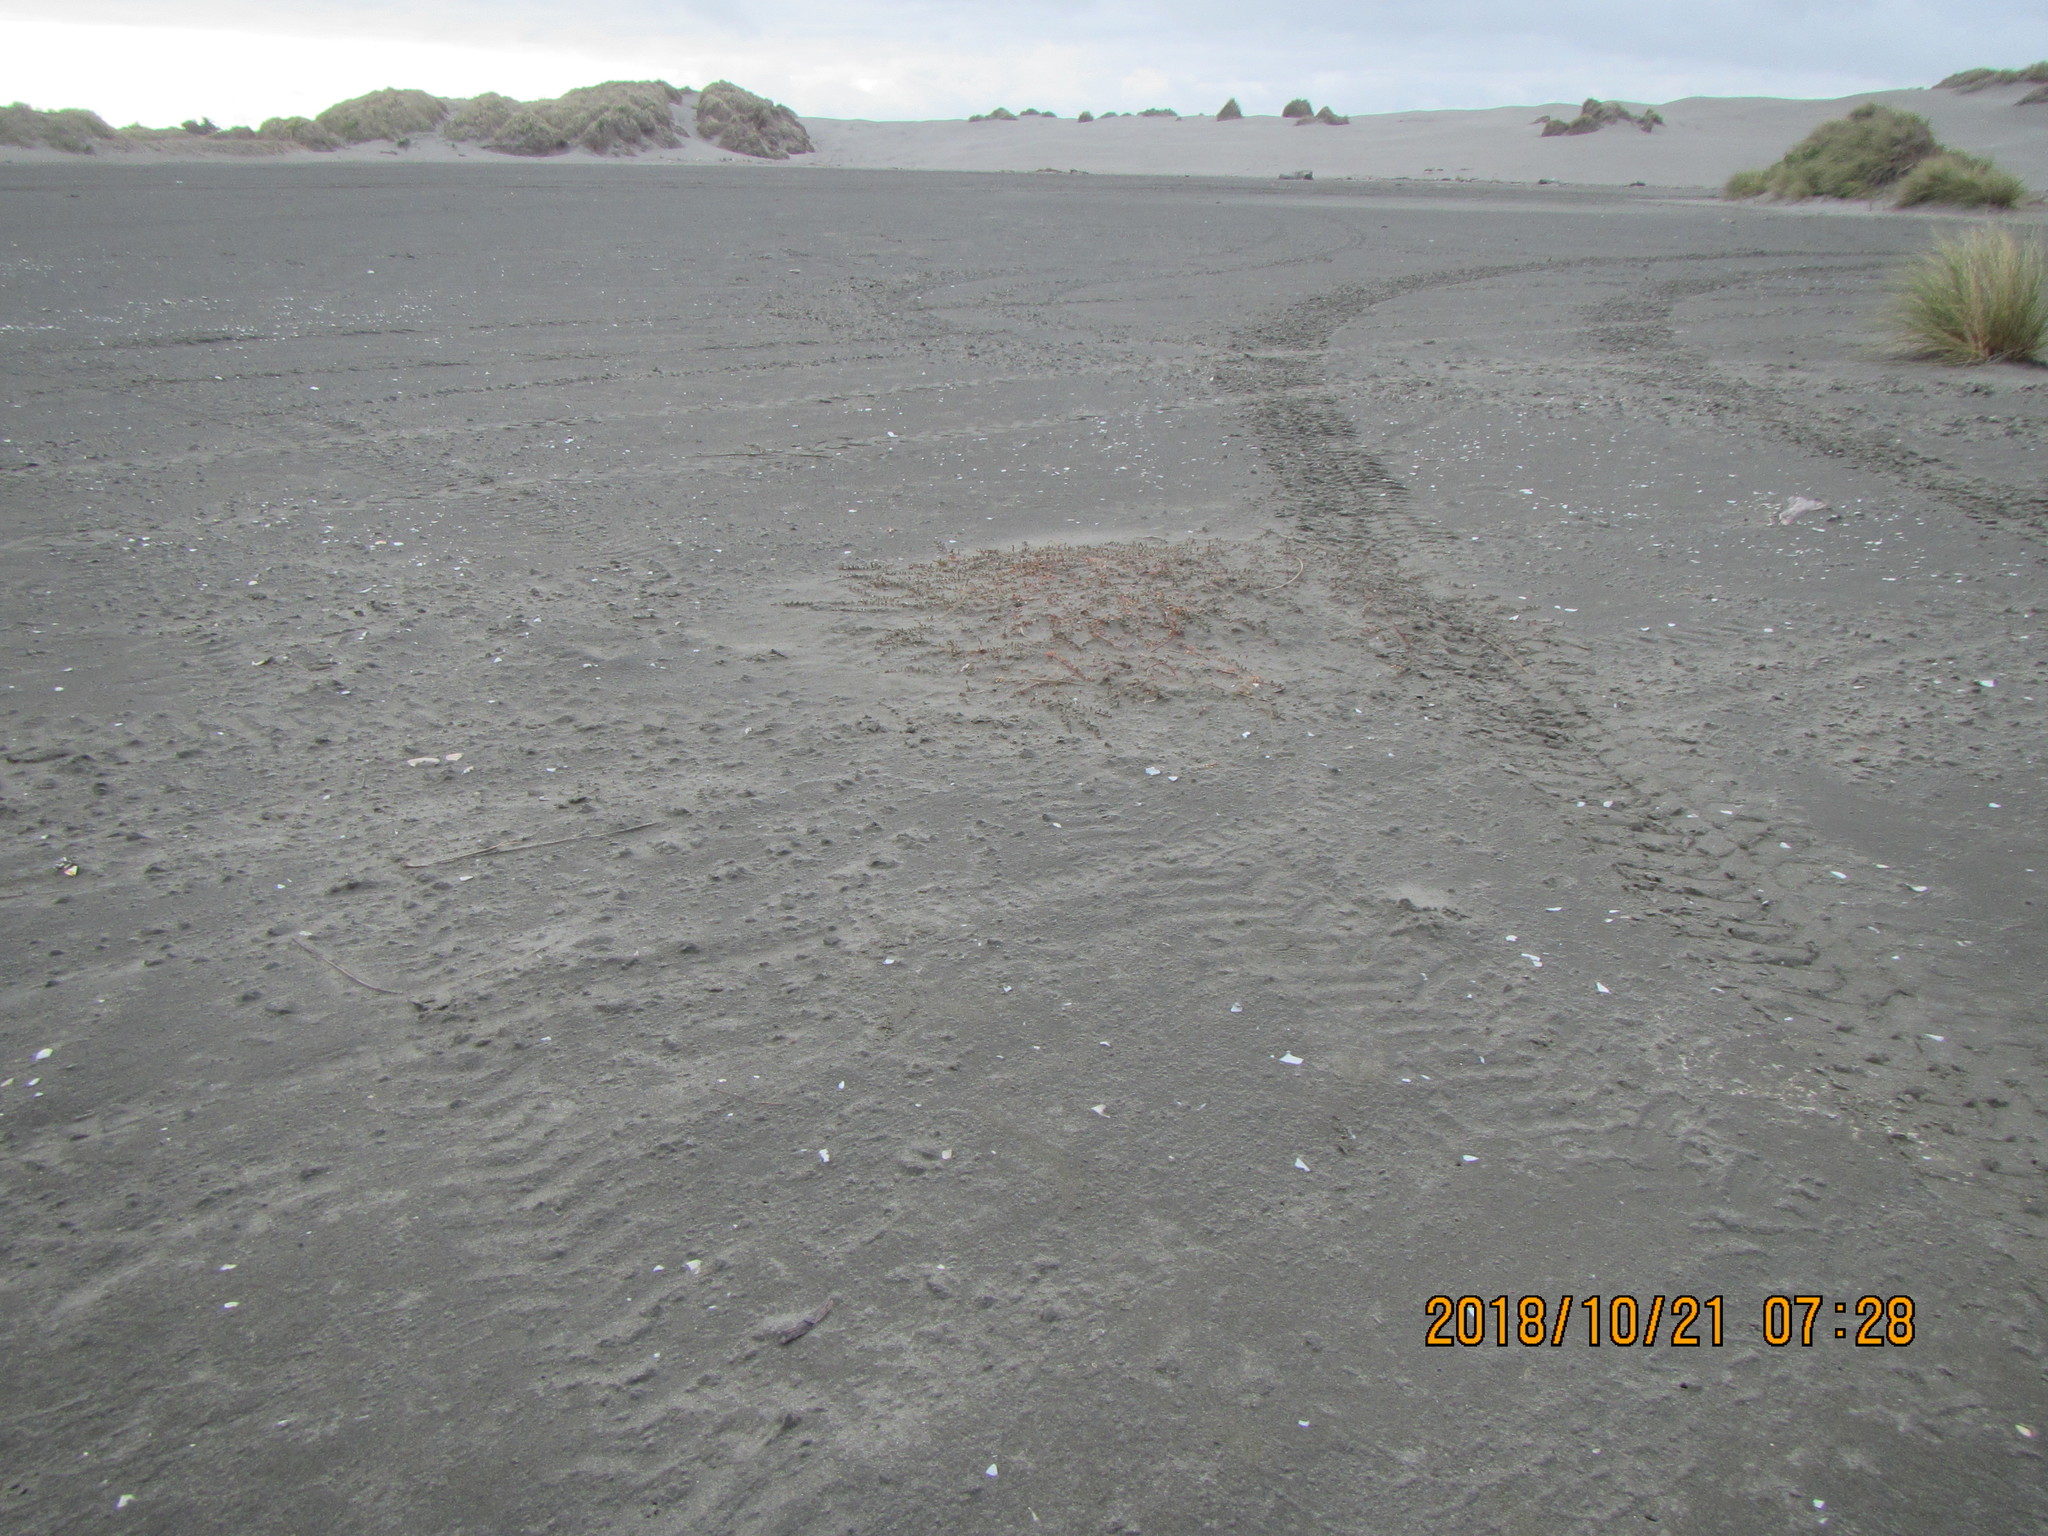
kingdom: Plantae
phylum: Tracheophyta
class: Magnoliopsida
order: Ericales
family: Primulaceae
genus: Samolus
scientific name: Samolus repens
